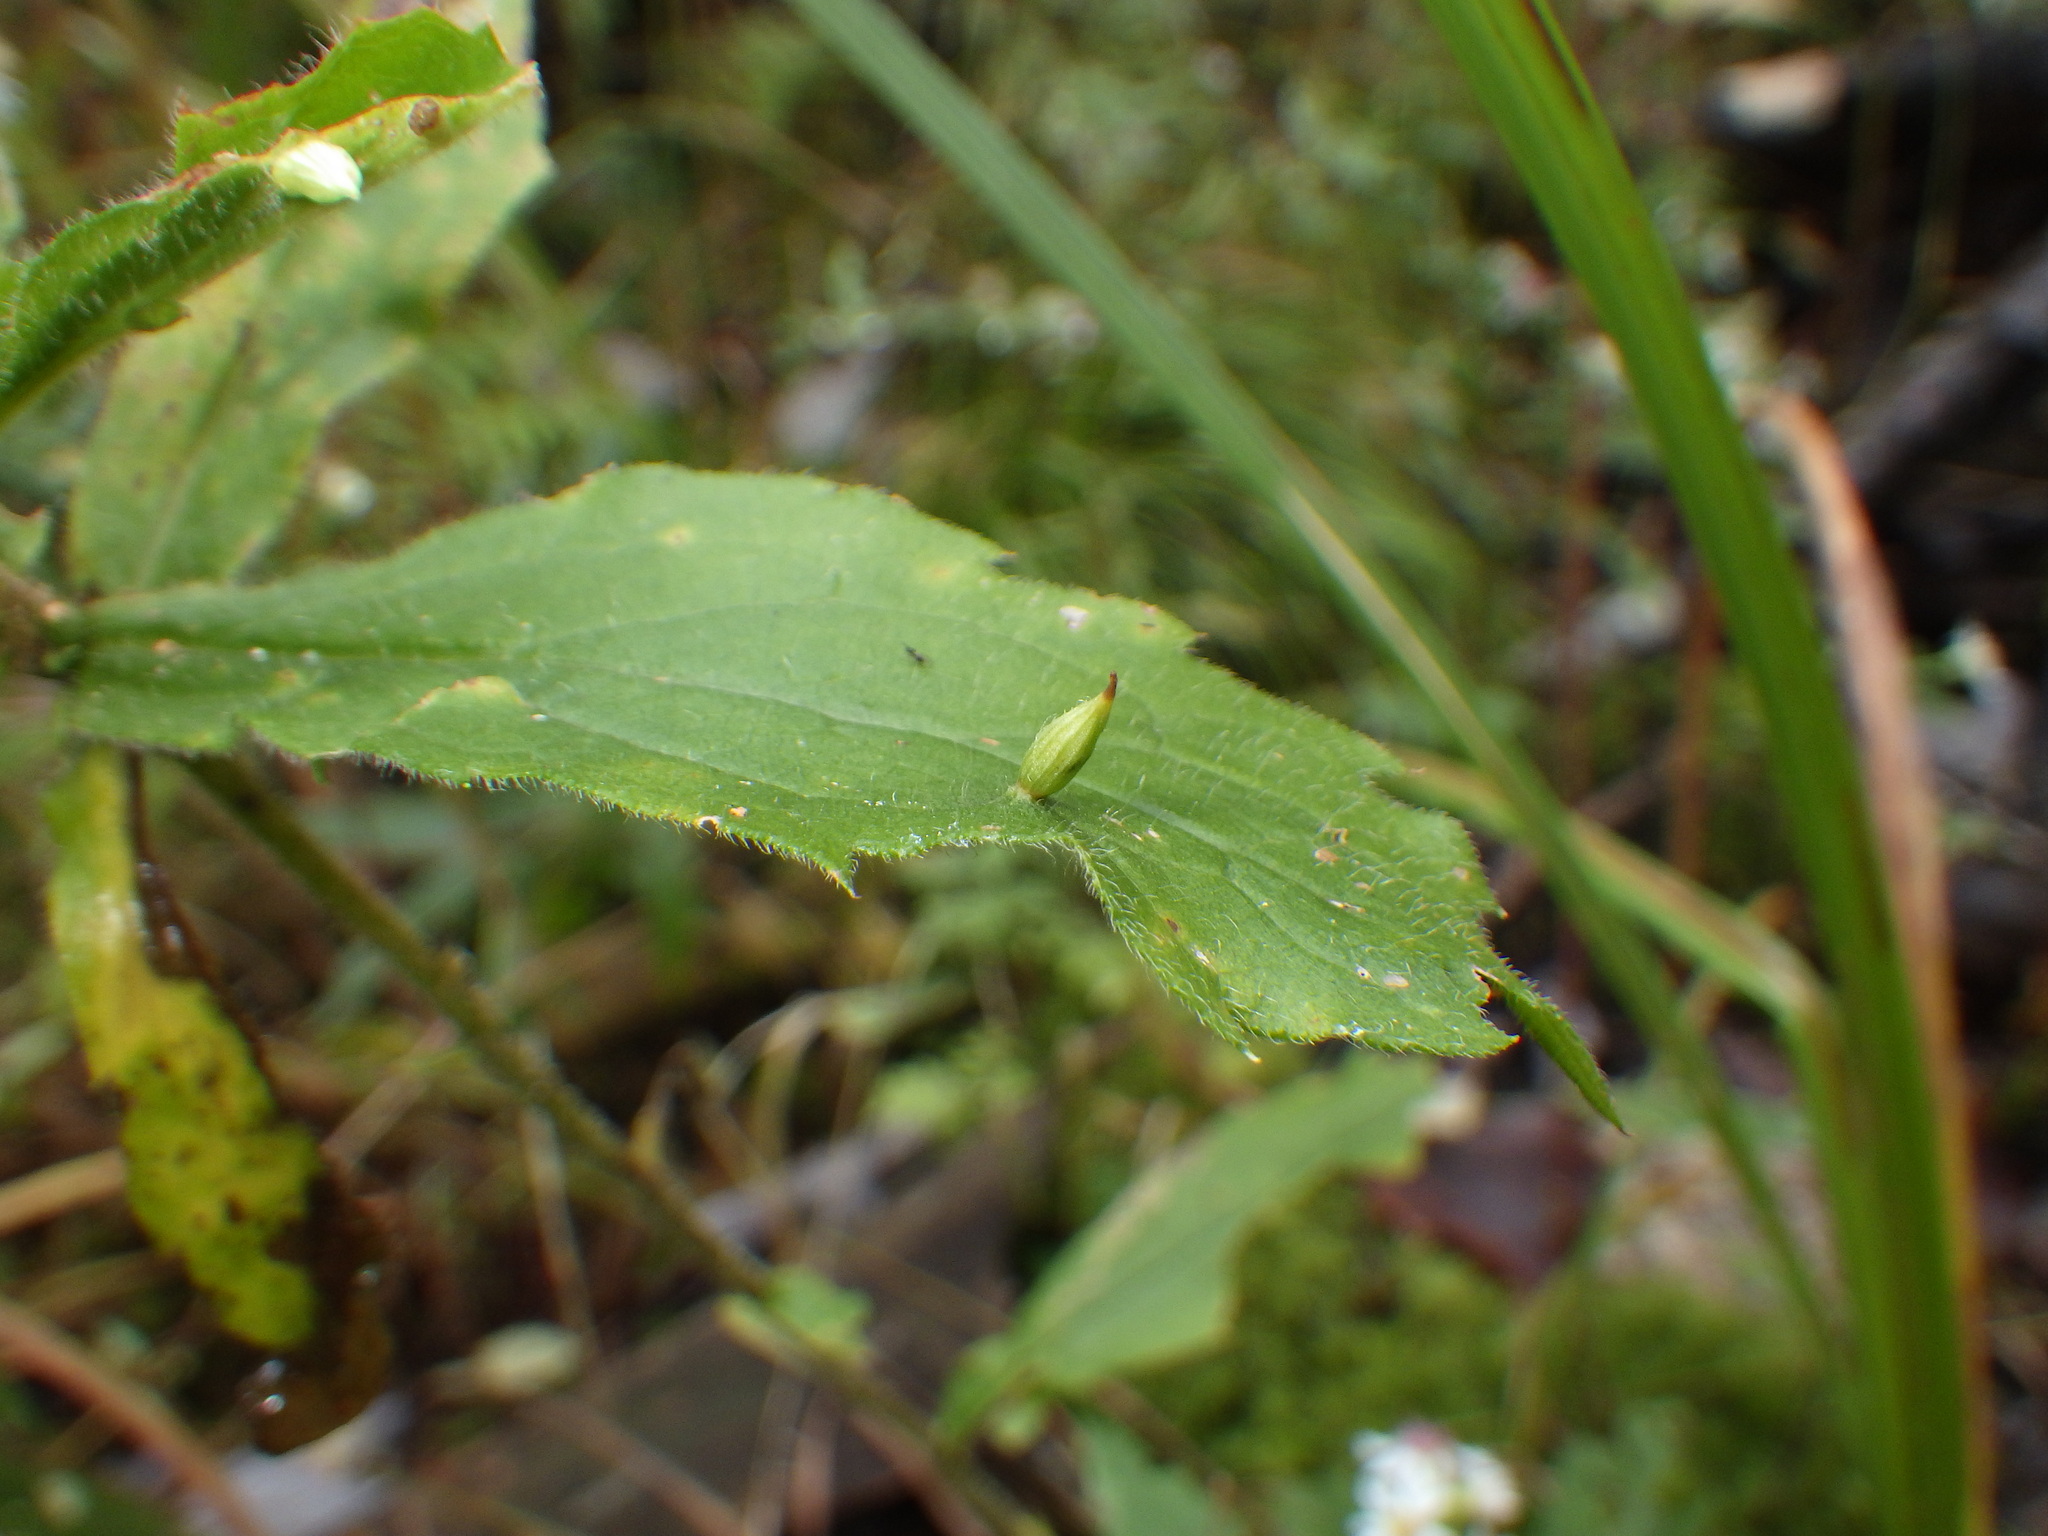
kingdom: Animalia
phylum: Arthropoda
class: Insecta
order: Diptera
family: Cecidomyiidae
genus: Rhopalomyia
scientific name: Rhopalomyia clarkei
